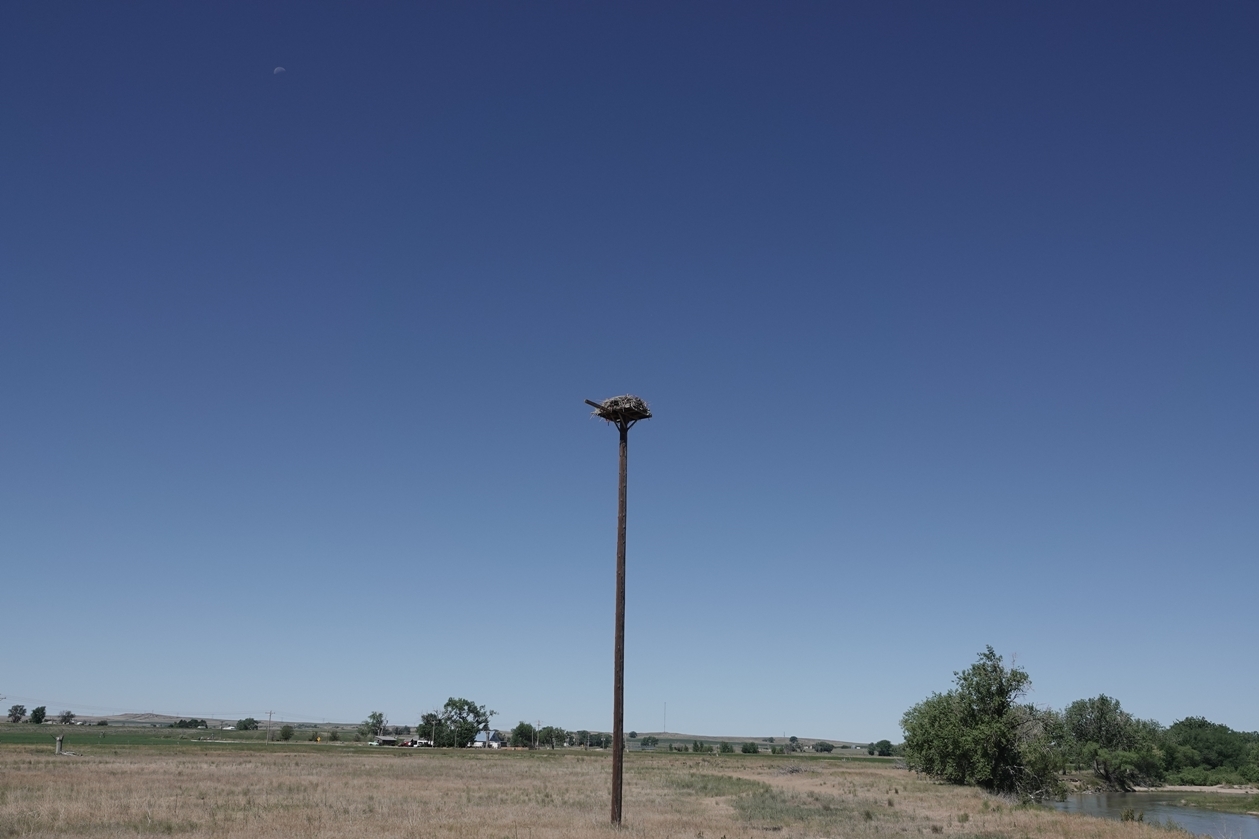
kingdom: Animalia
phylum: Chordata
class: Aves
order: Accipitriformes
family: Pandionidae
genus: Pandion
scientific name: Pandion haliaetus
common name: Osprey
